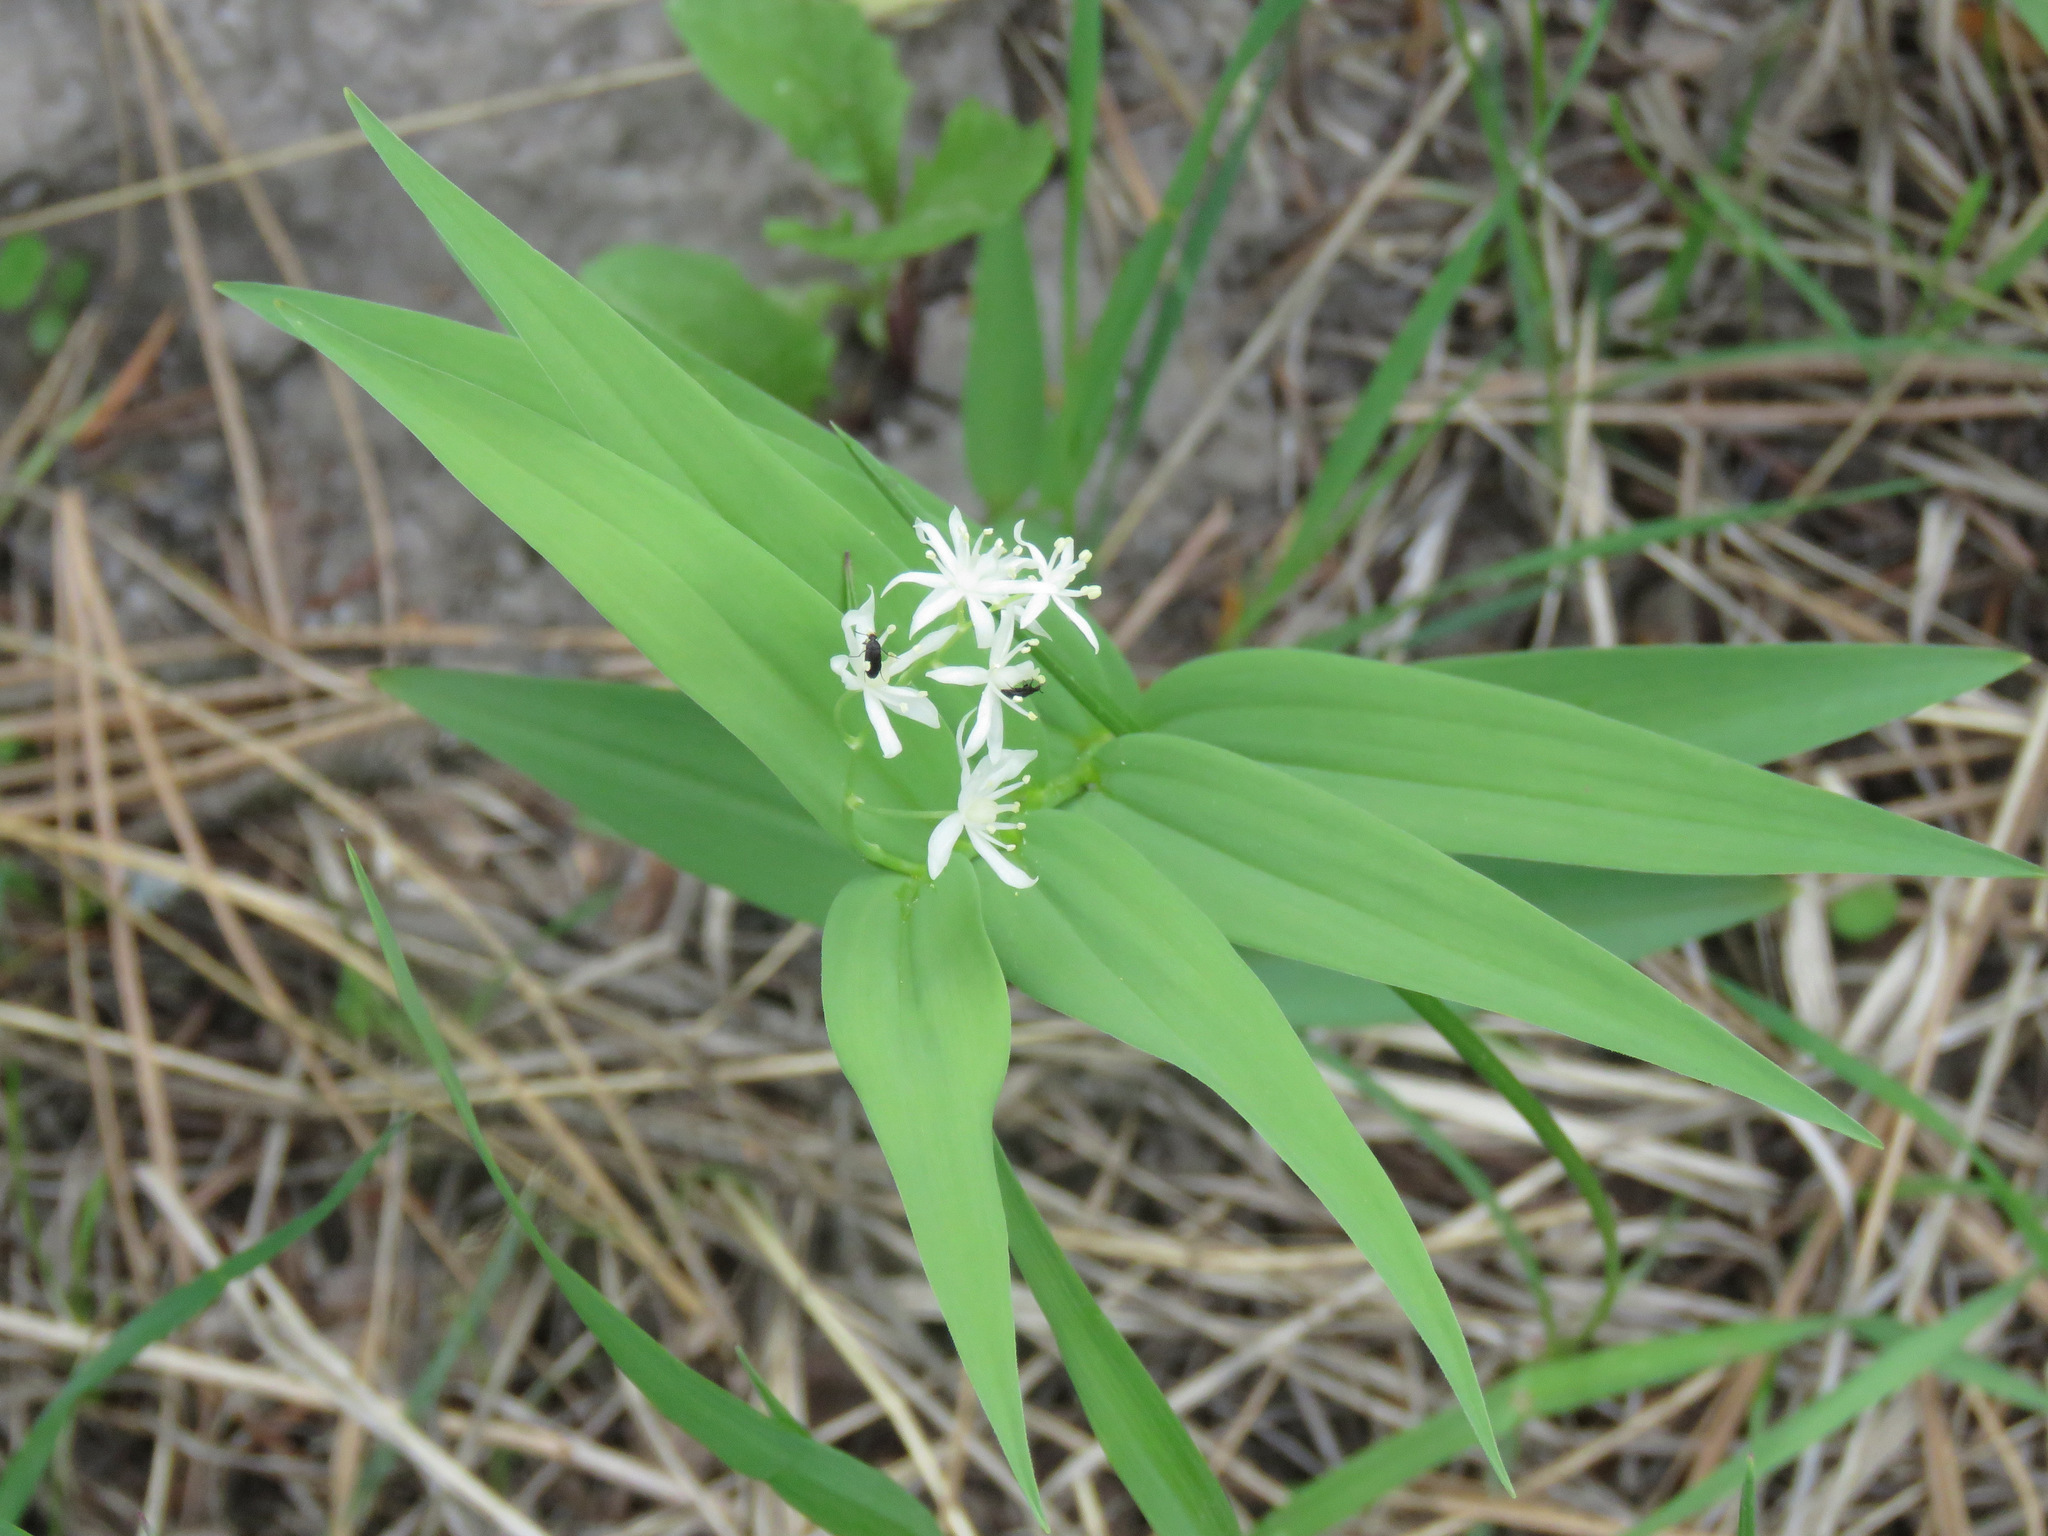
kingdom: Plantae
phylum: Tracheophyta
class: Liliopsida
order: Asparagales
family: Asparagaceae
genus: Maianthemum
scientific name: Maianthemum stellatum
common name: Little false solomon's seal
